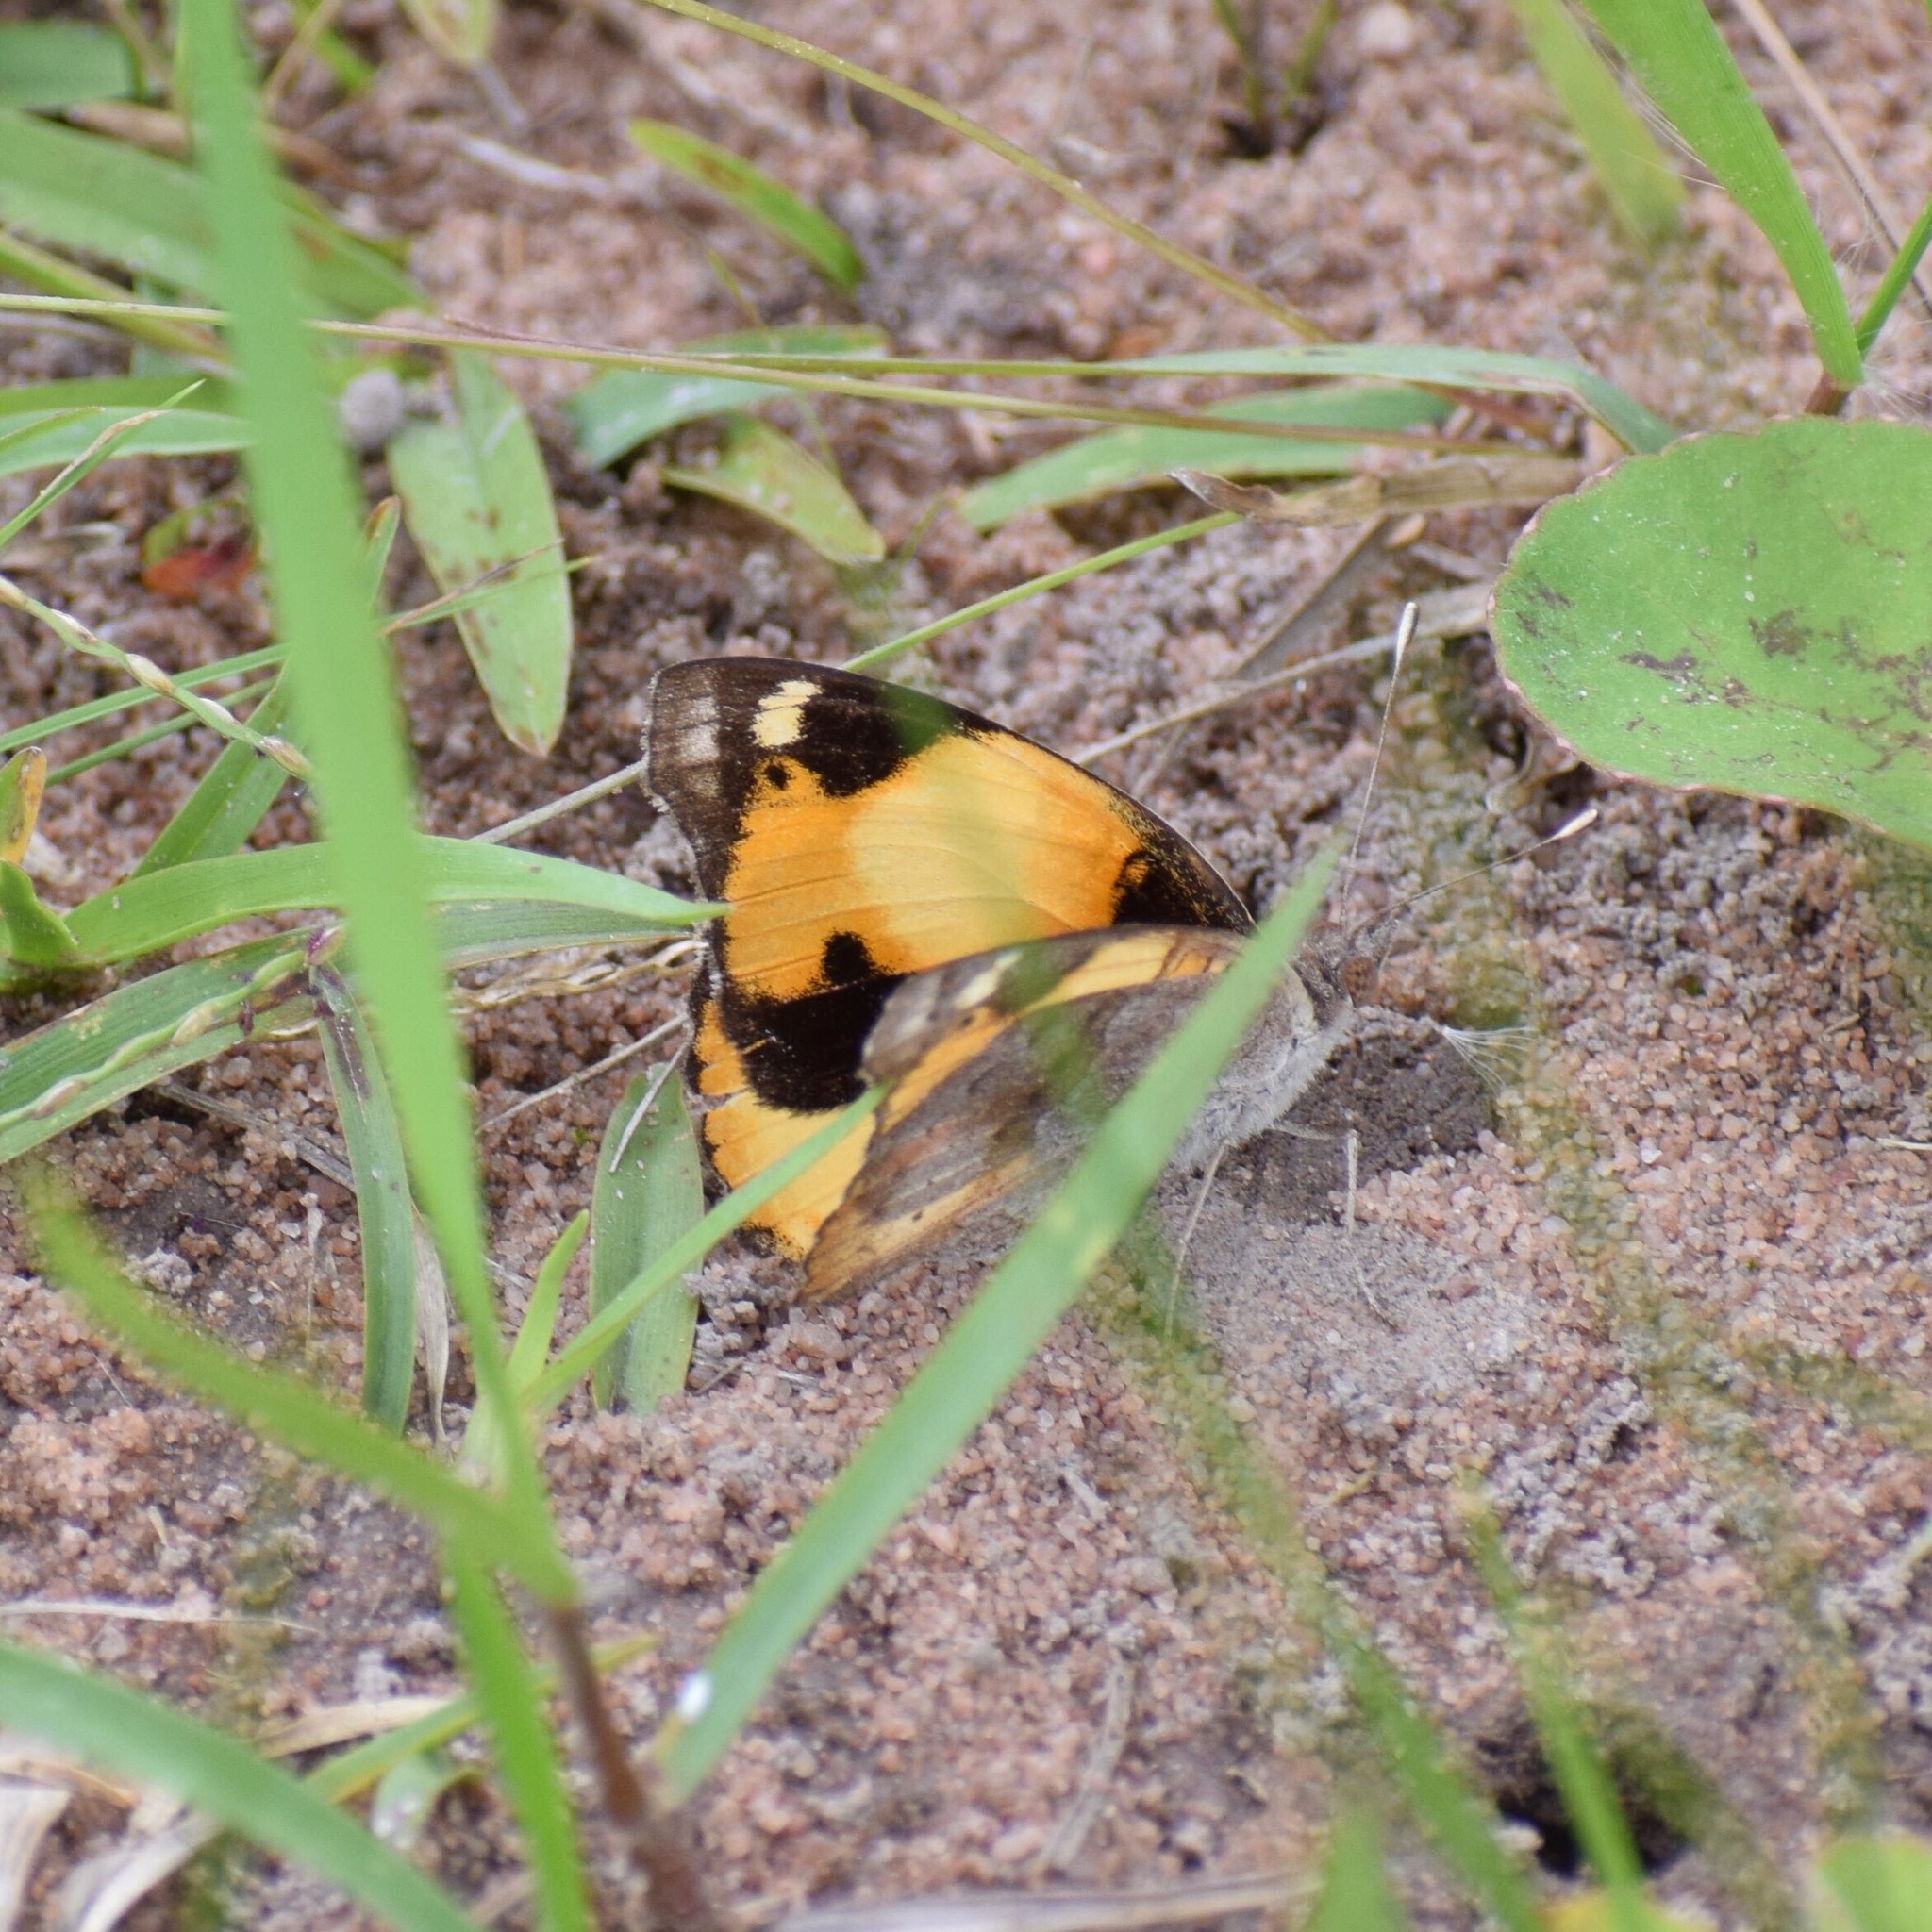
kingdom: Animalia
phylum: Arthropoda
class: Insecta
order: Lepidoptera
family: Nymphalidae
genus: Junonia
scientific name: Junonia hierta
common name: Yellow pansy
